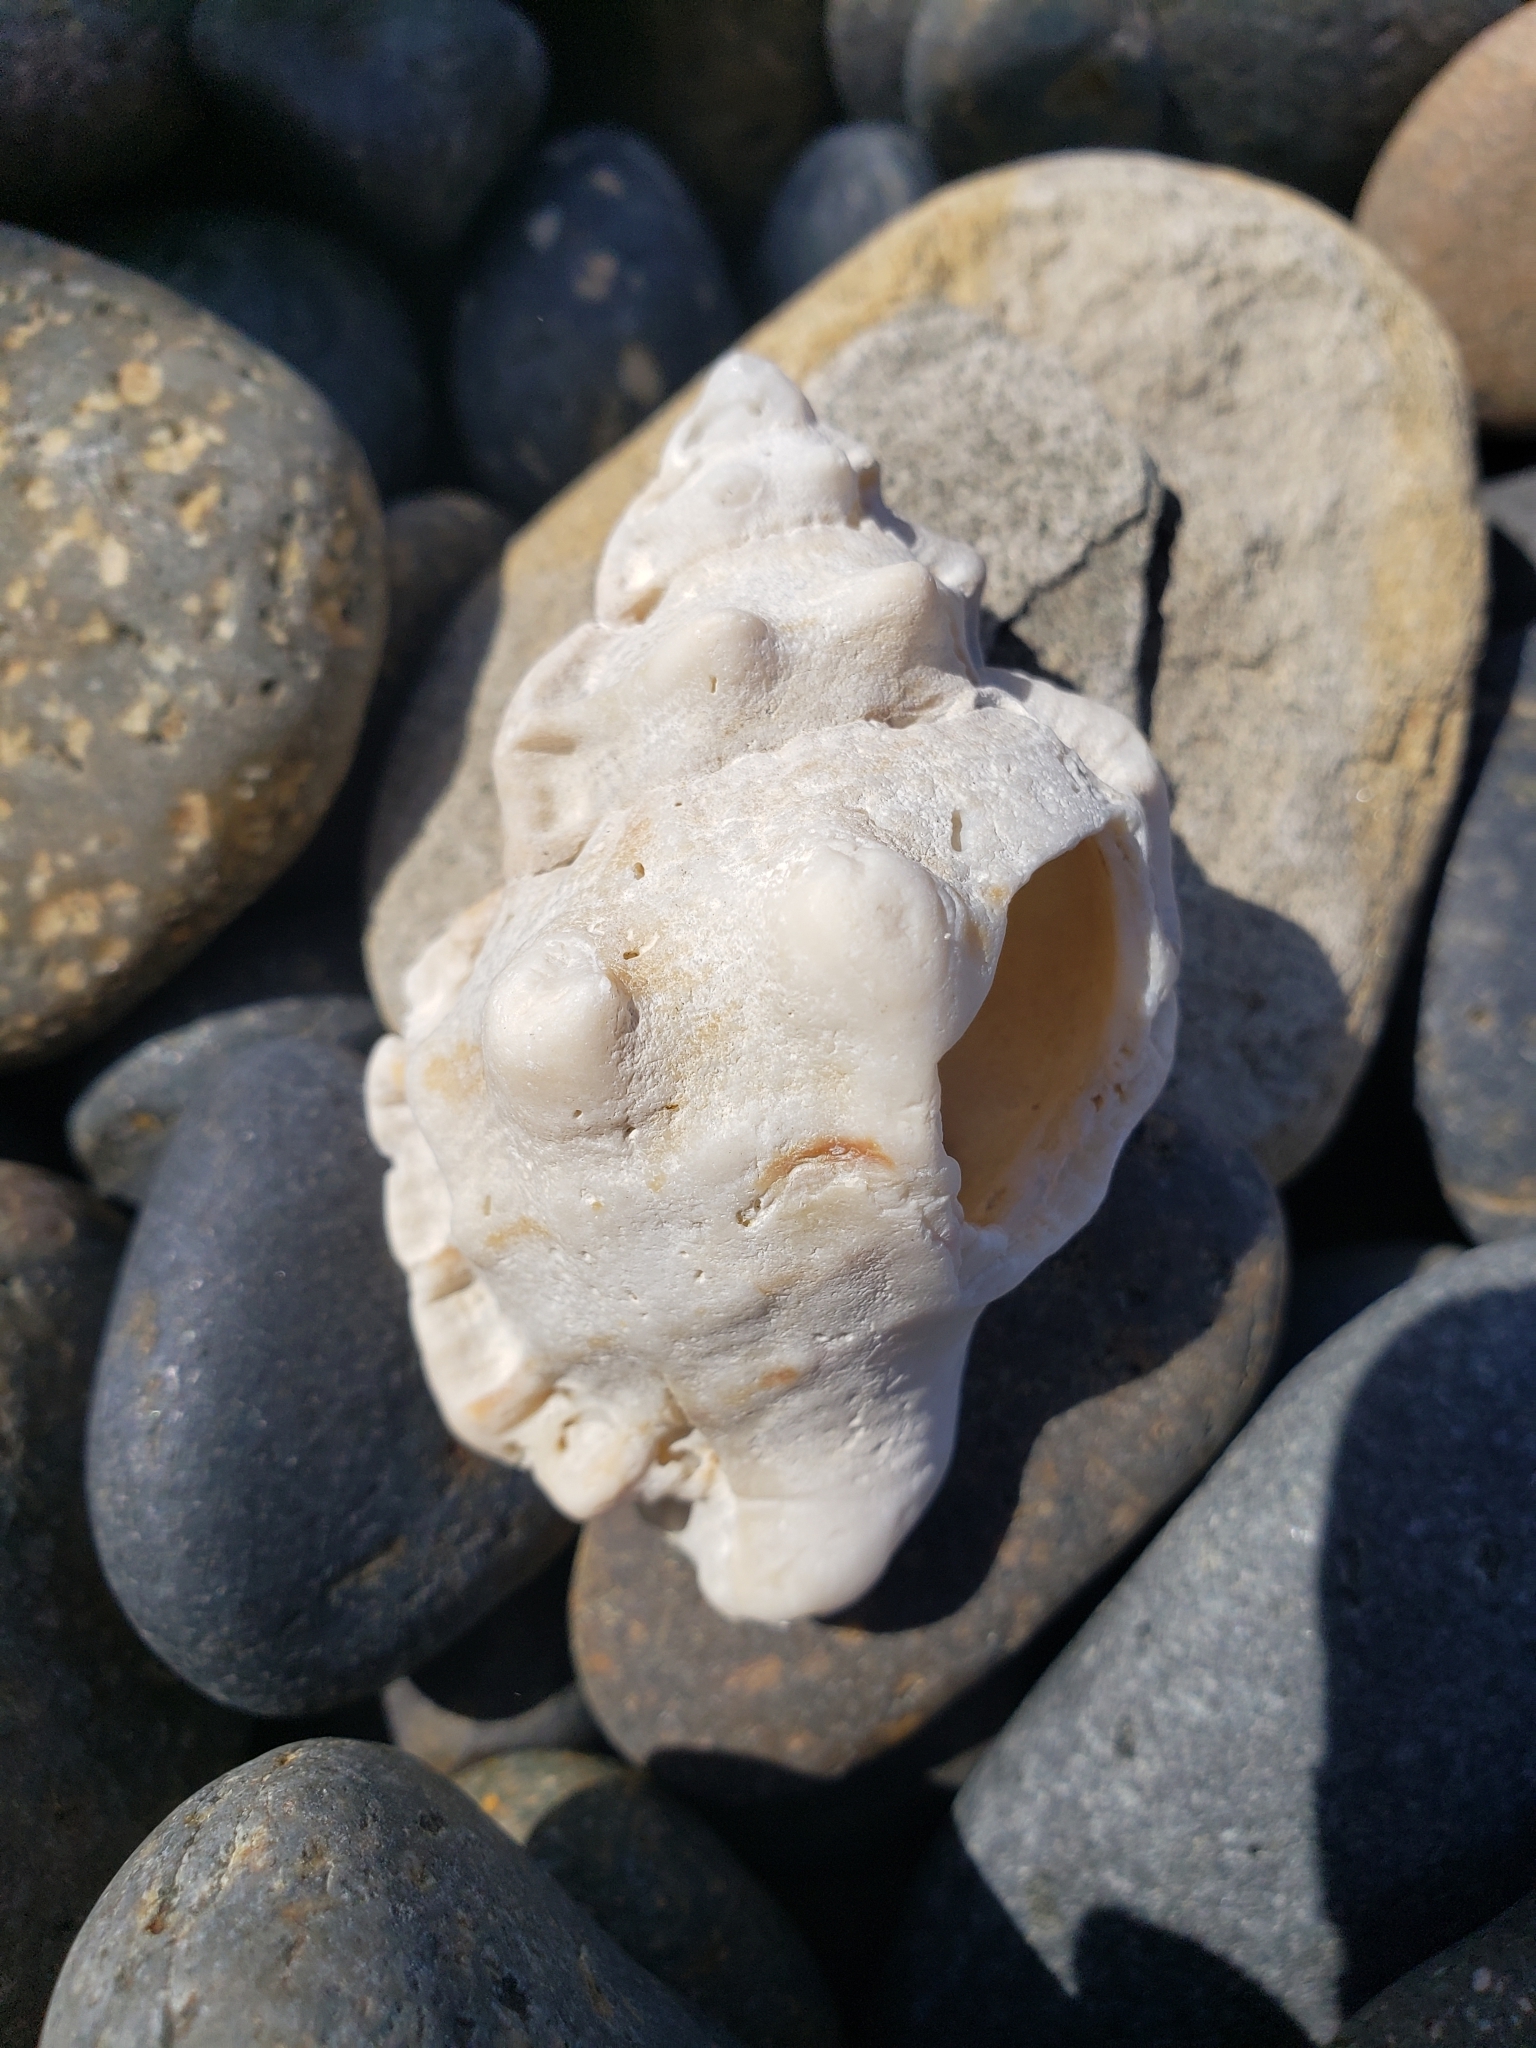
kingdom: Animalia
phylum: Mollusca
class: Gastropoda
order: Littorinimorpha
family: Bursidae
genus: Crossata
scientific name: Crossata californica
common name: California frogsnail
